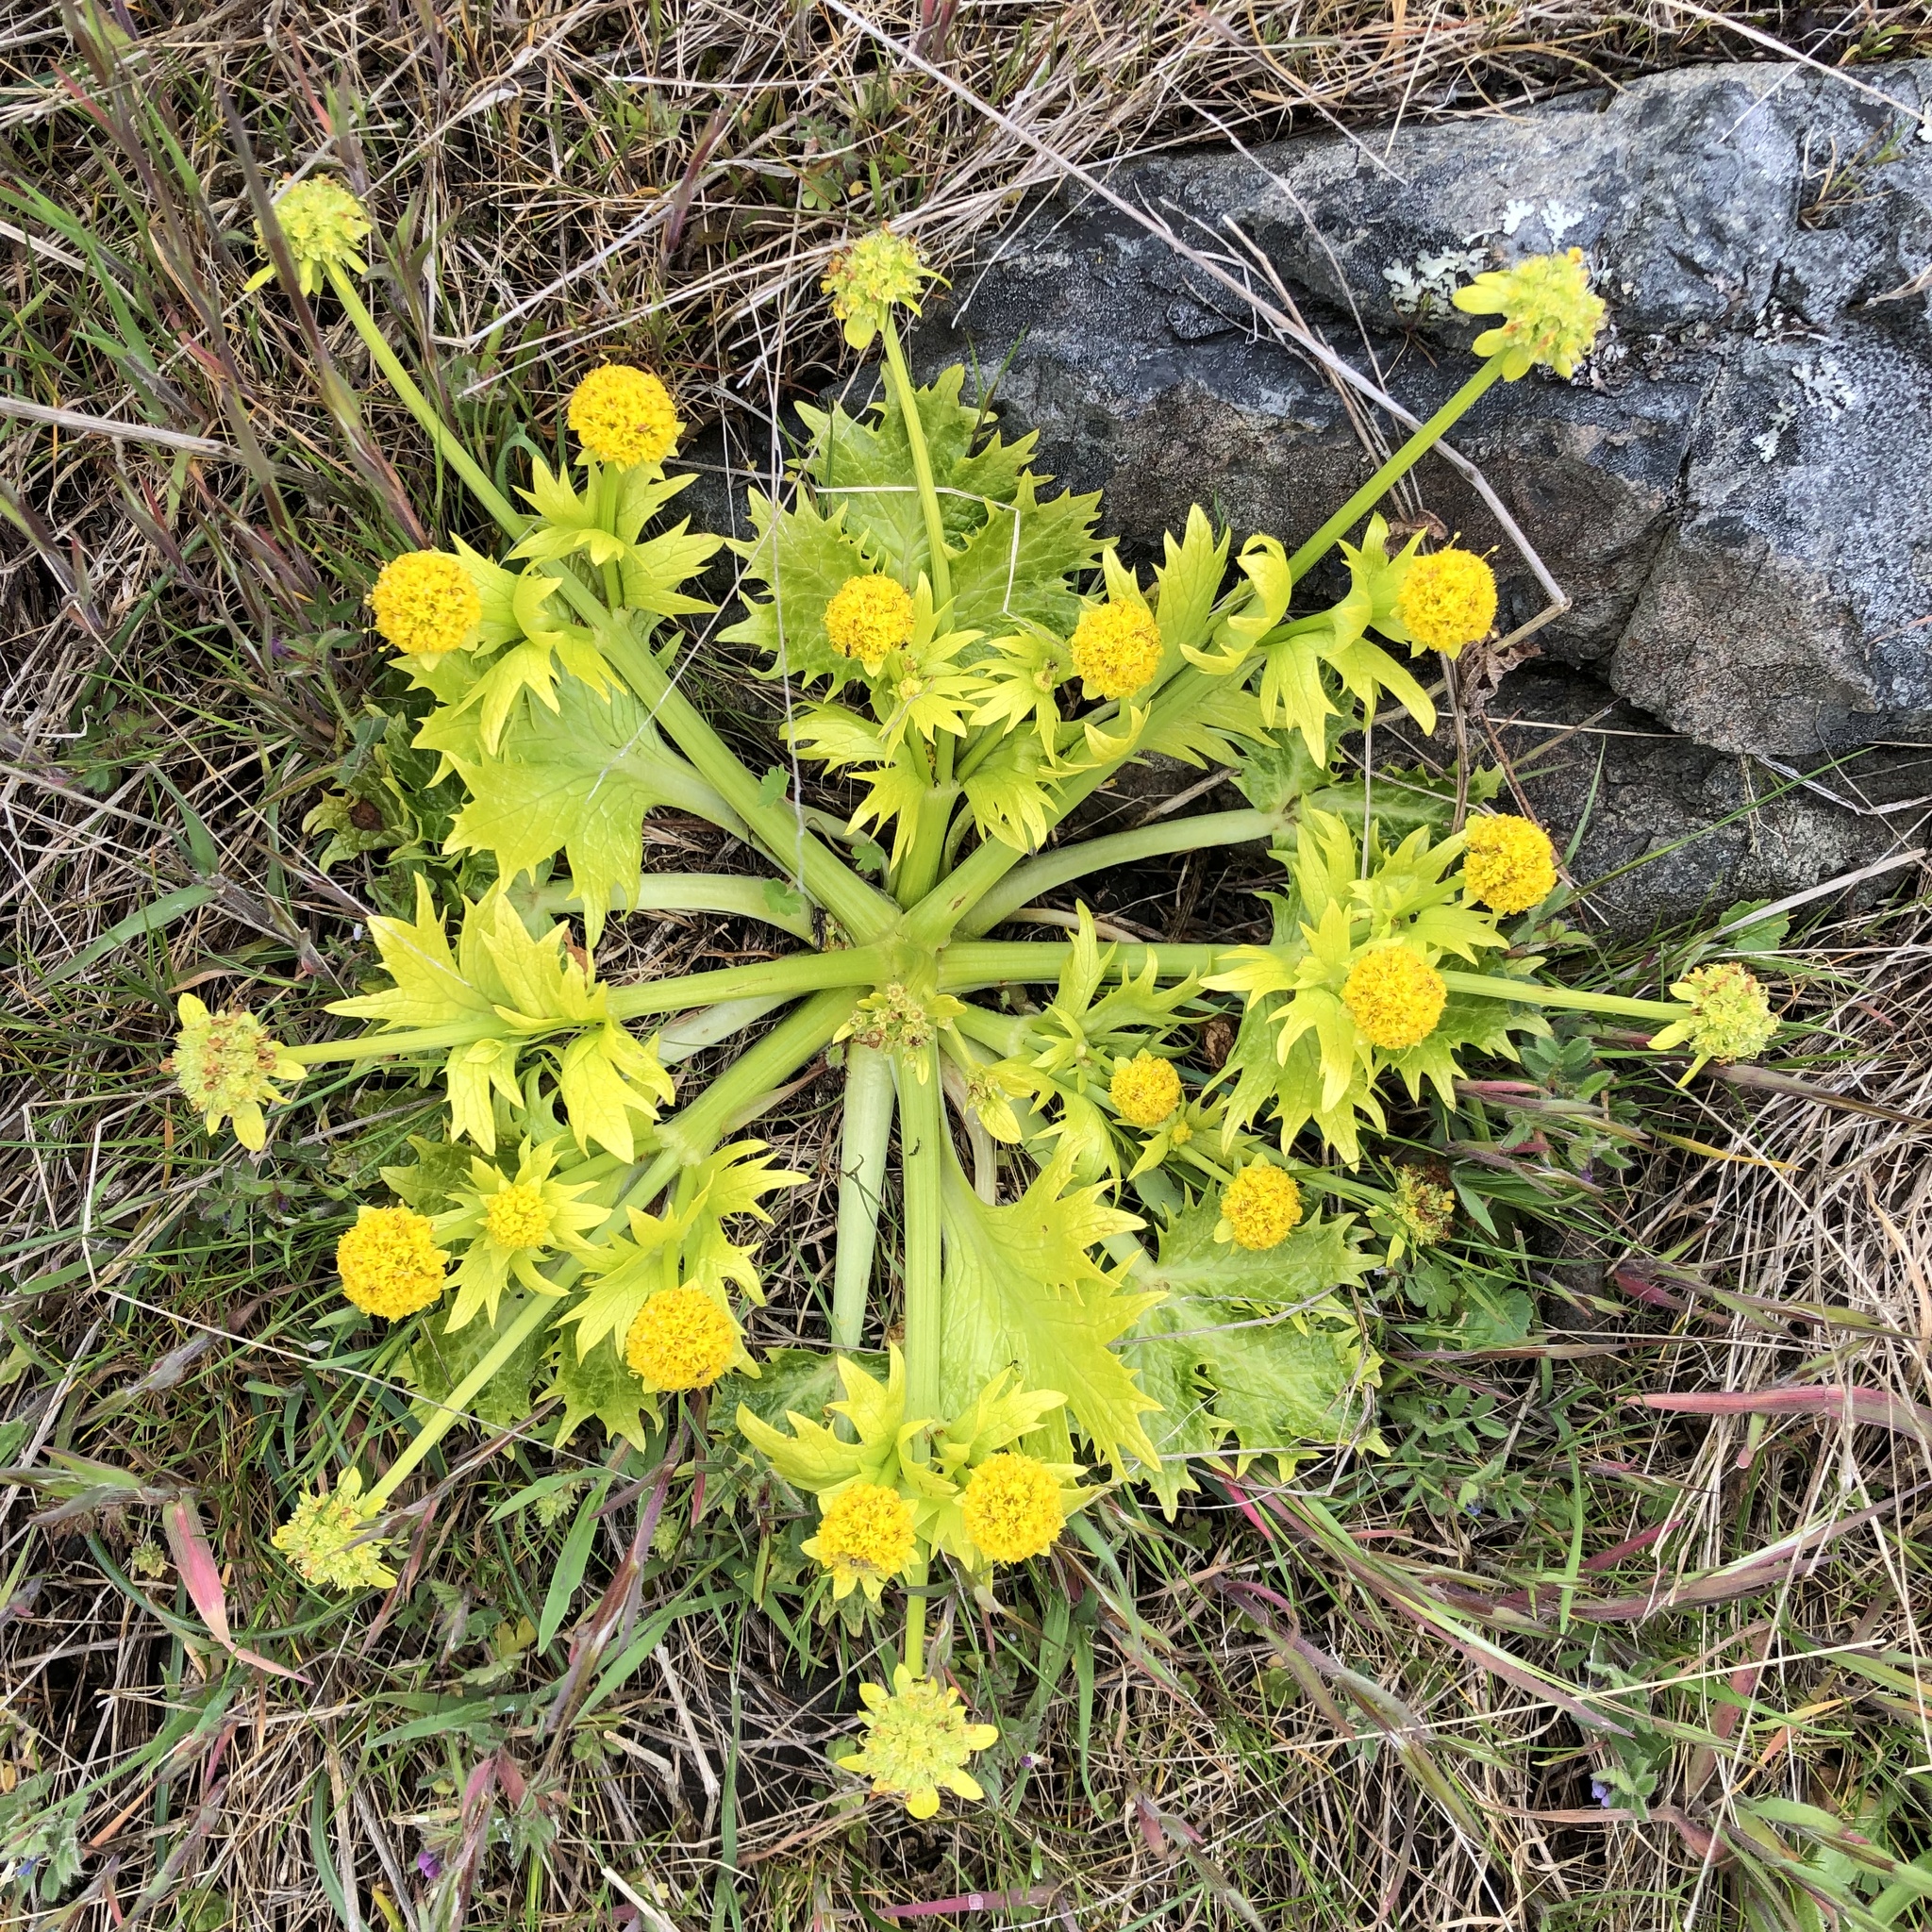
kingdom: Plantae
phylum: Tracheophyta
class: Magnoliopsida
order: Apiales
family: Apiaceae
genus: Sanicula
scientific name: Sanicula arctopoides
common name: Footsteps-of-spring
